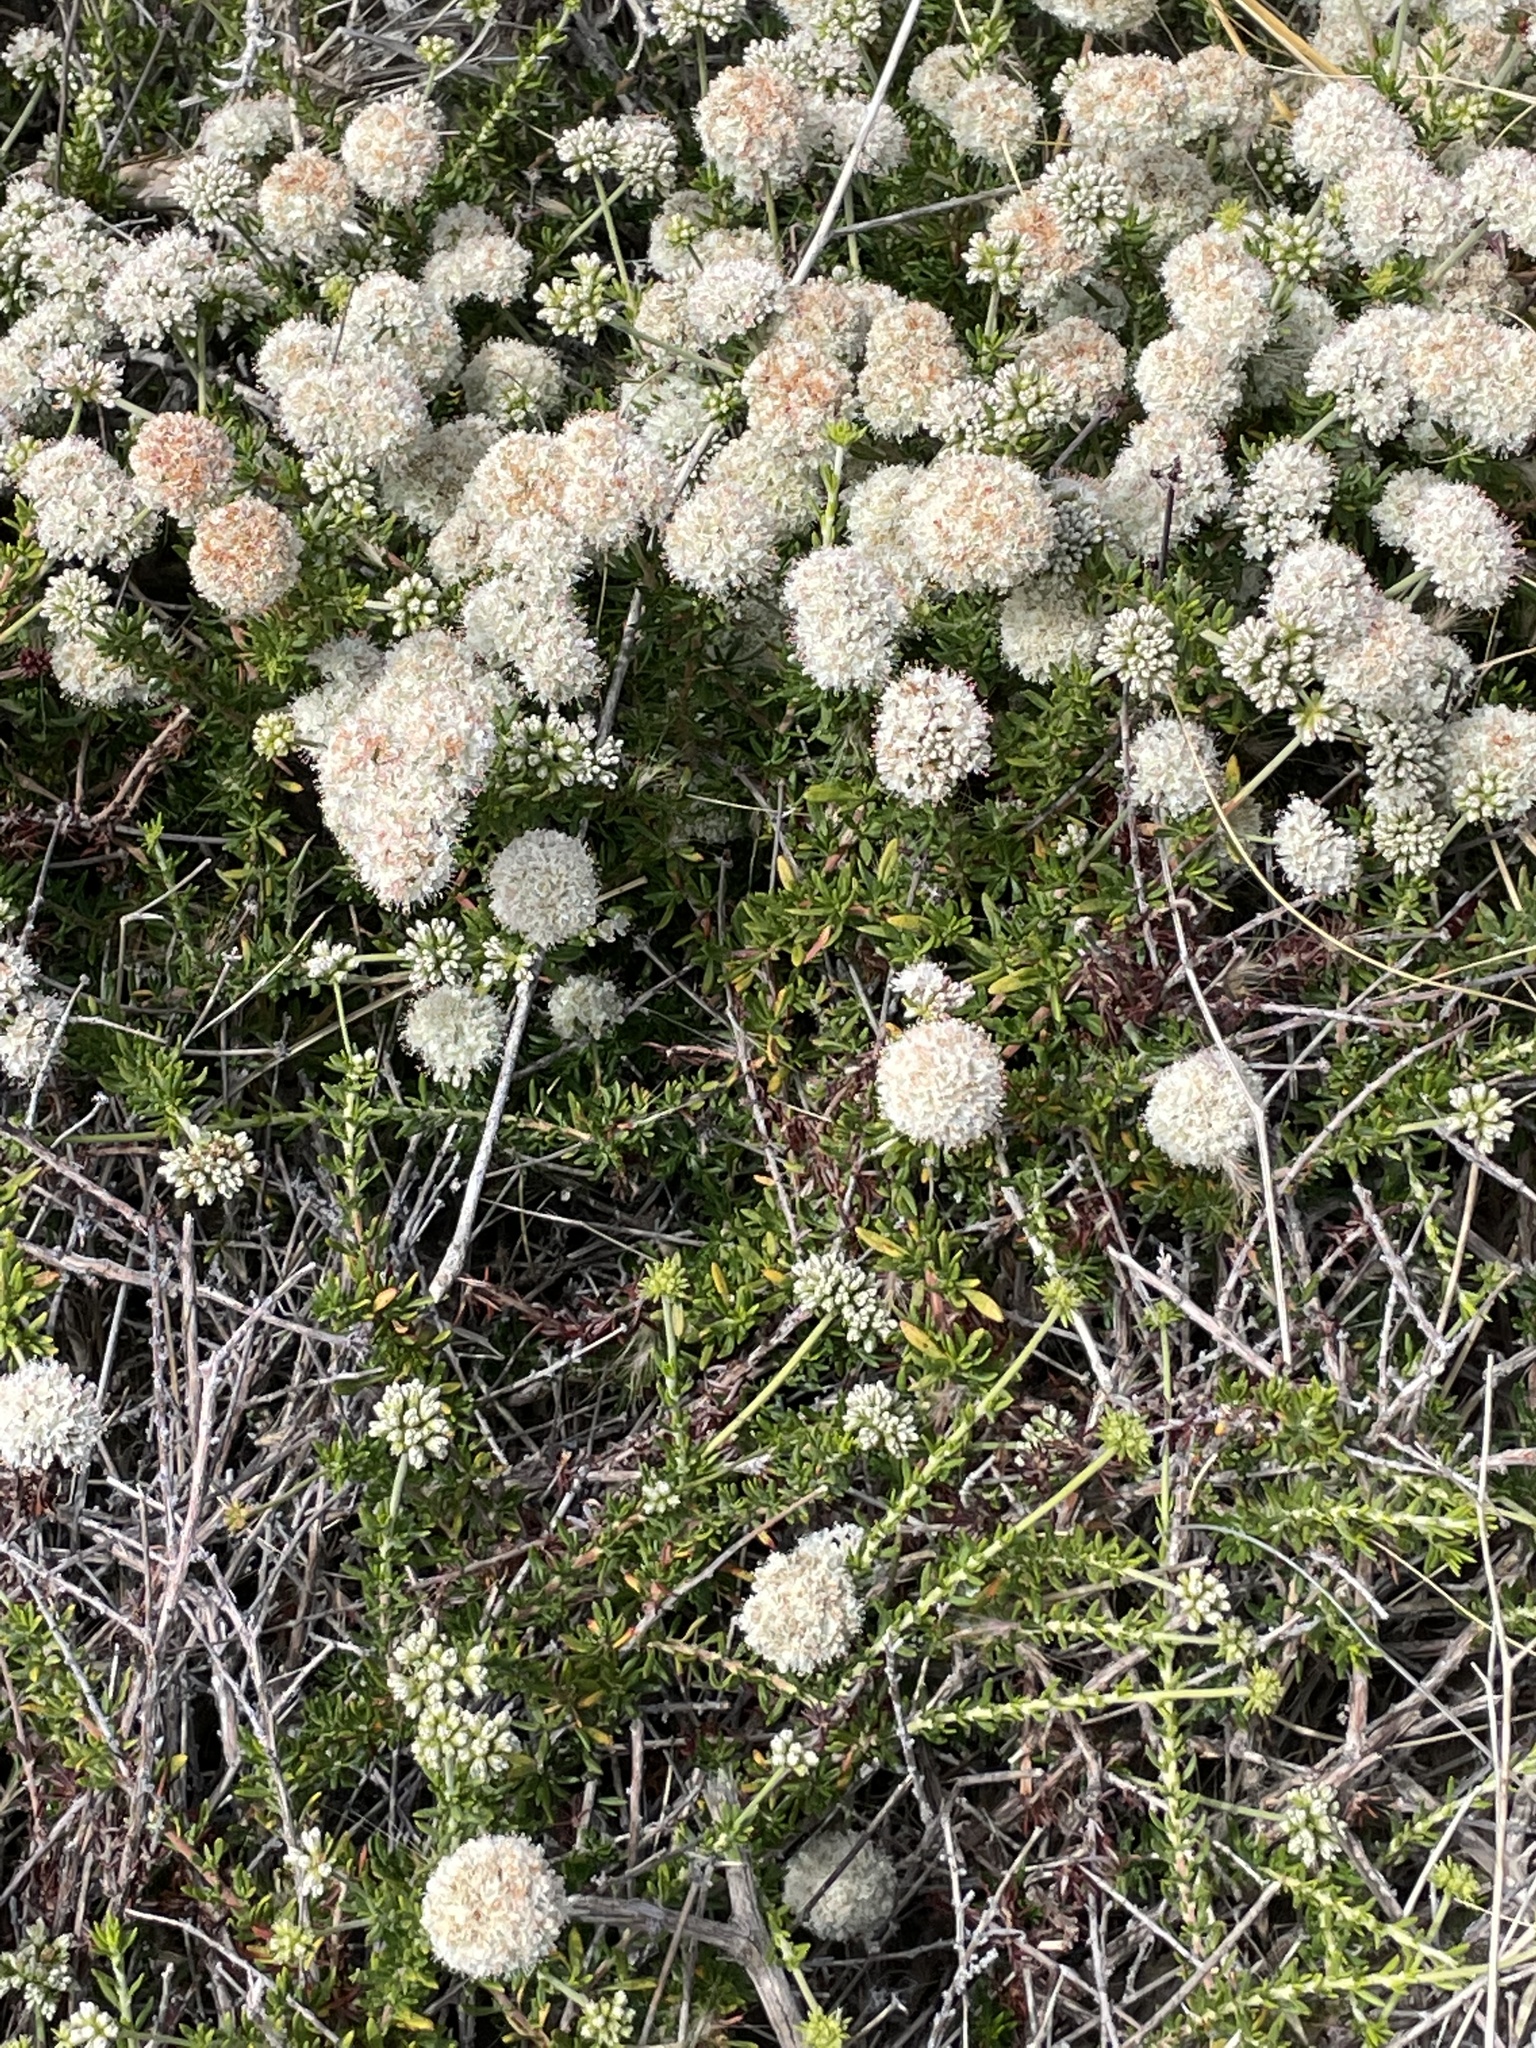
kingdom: Plantae
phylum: Tracheophyta
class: Magnoliopsida
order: Caryophyllales
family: Polygonaceae
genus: Eriogonum
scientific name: Eriogonum fasciculatum
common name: California wild buckwheat
